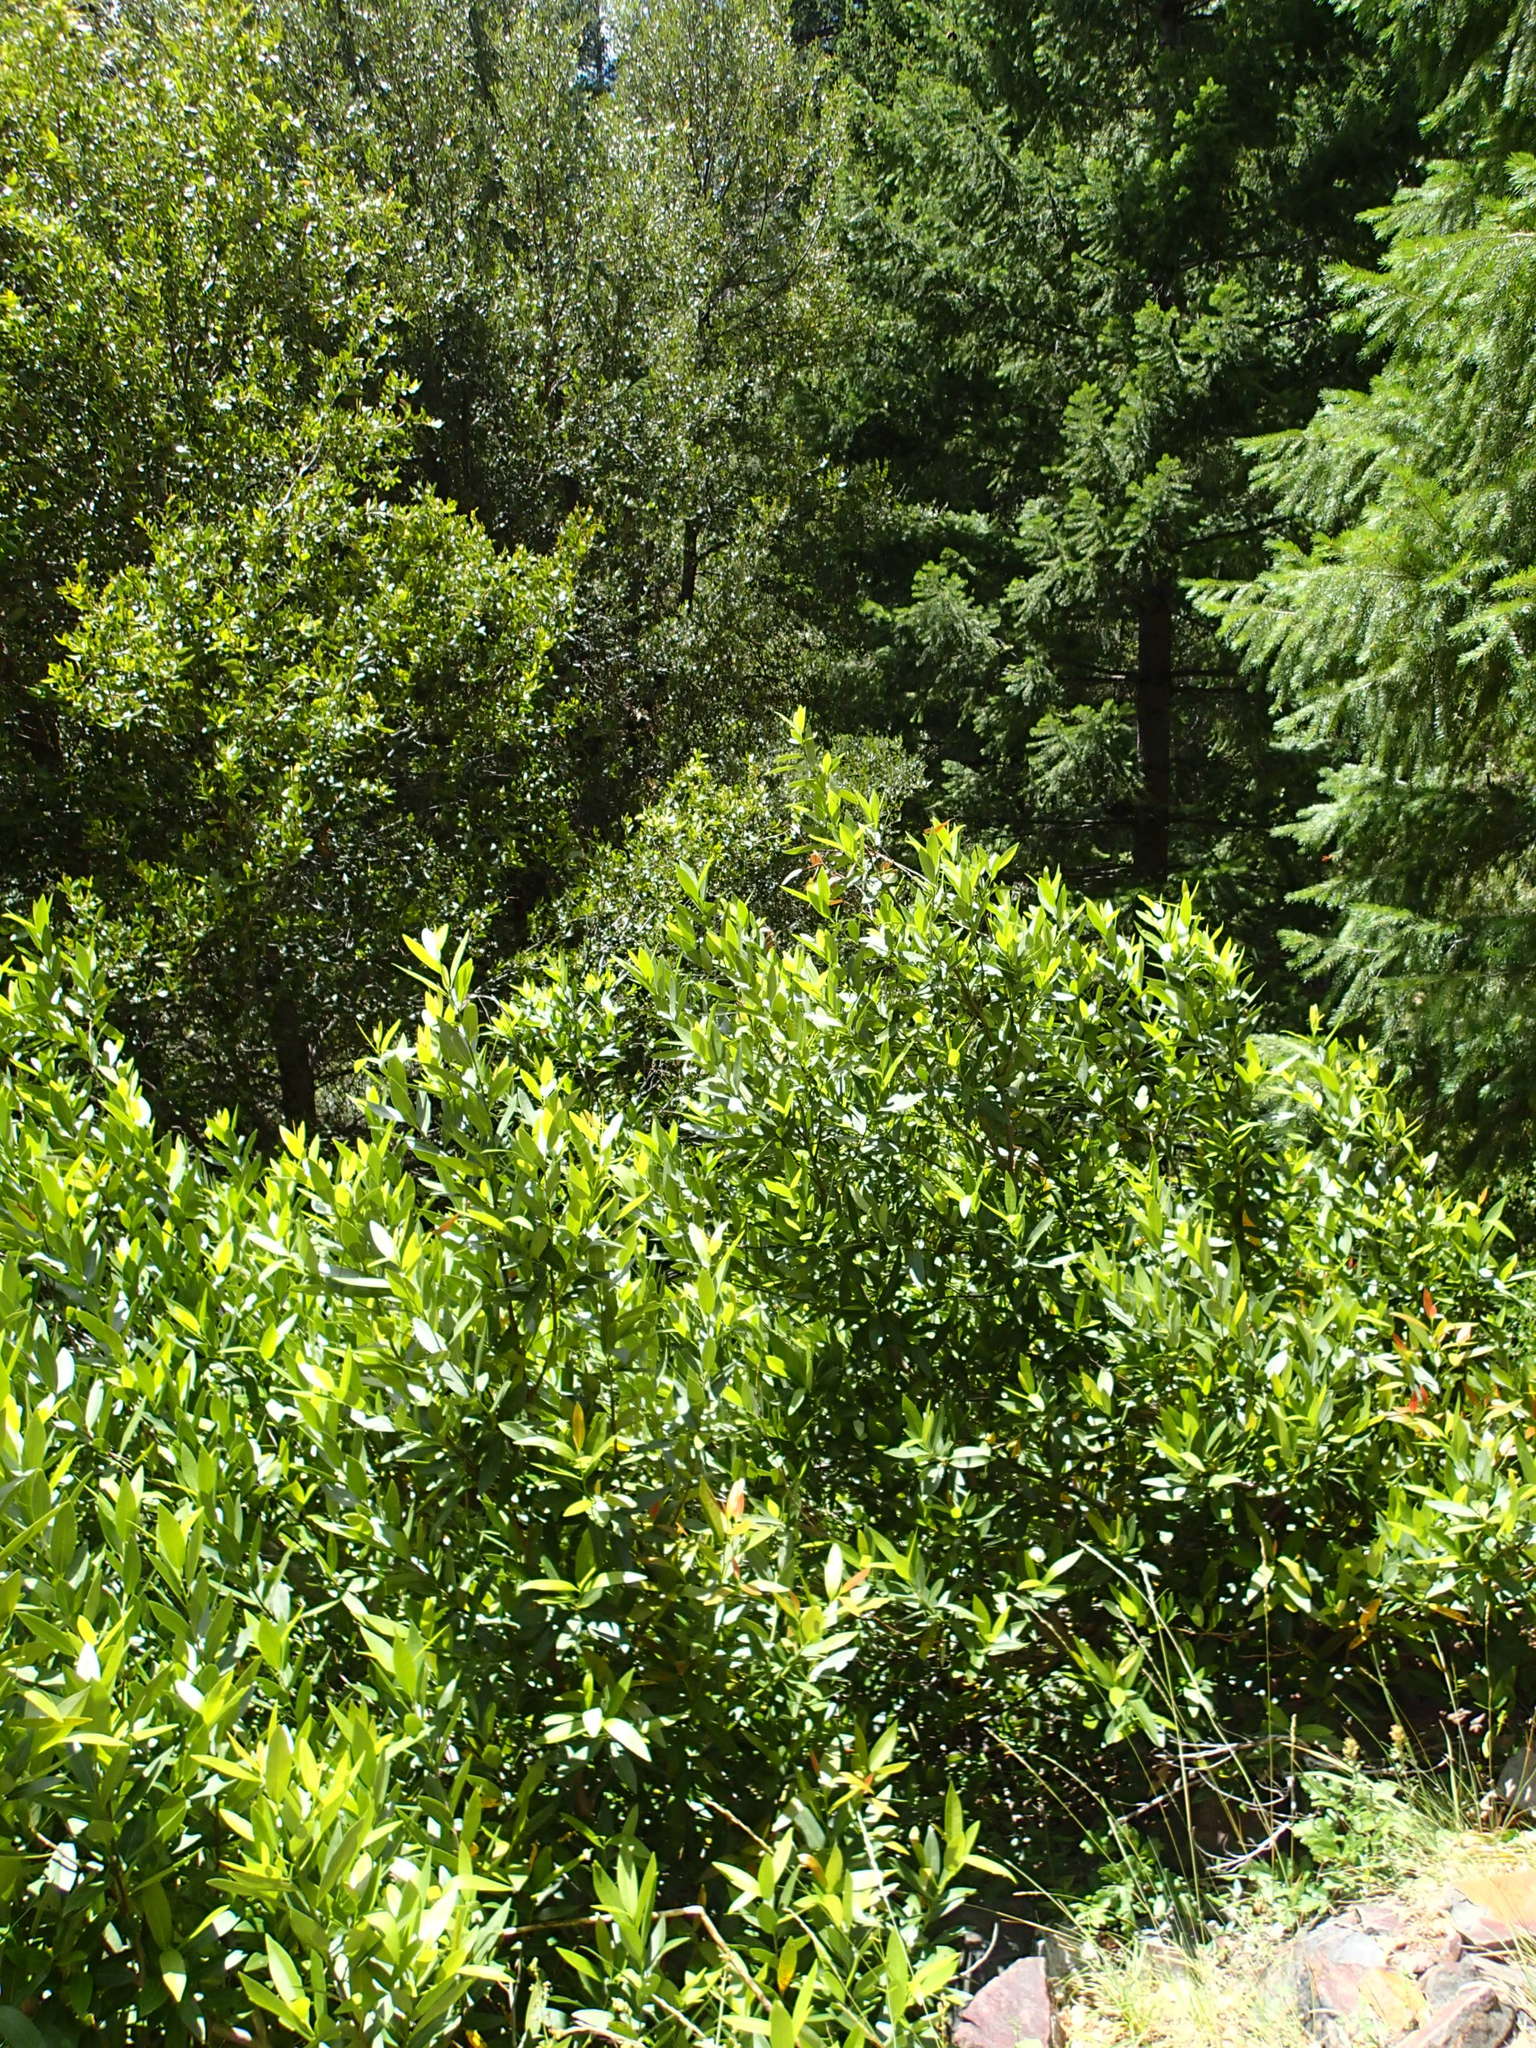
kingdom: Plantae
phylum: Tracheophyta
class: Magnoliopsida
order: Laurales
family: Lauraceae
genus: Umbellularia
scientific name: Umbellularia californica
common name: California bay
